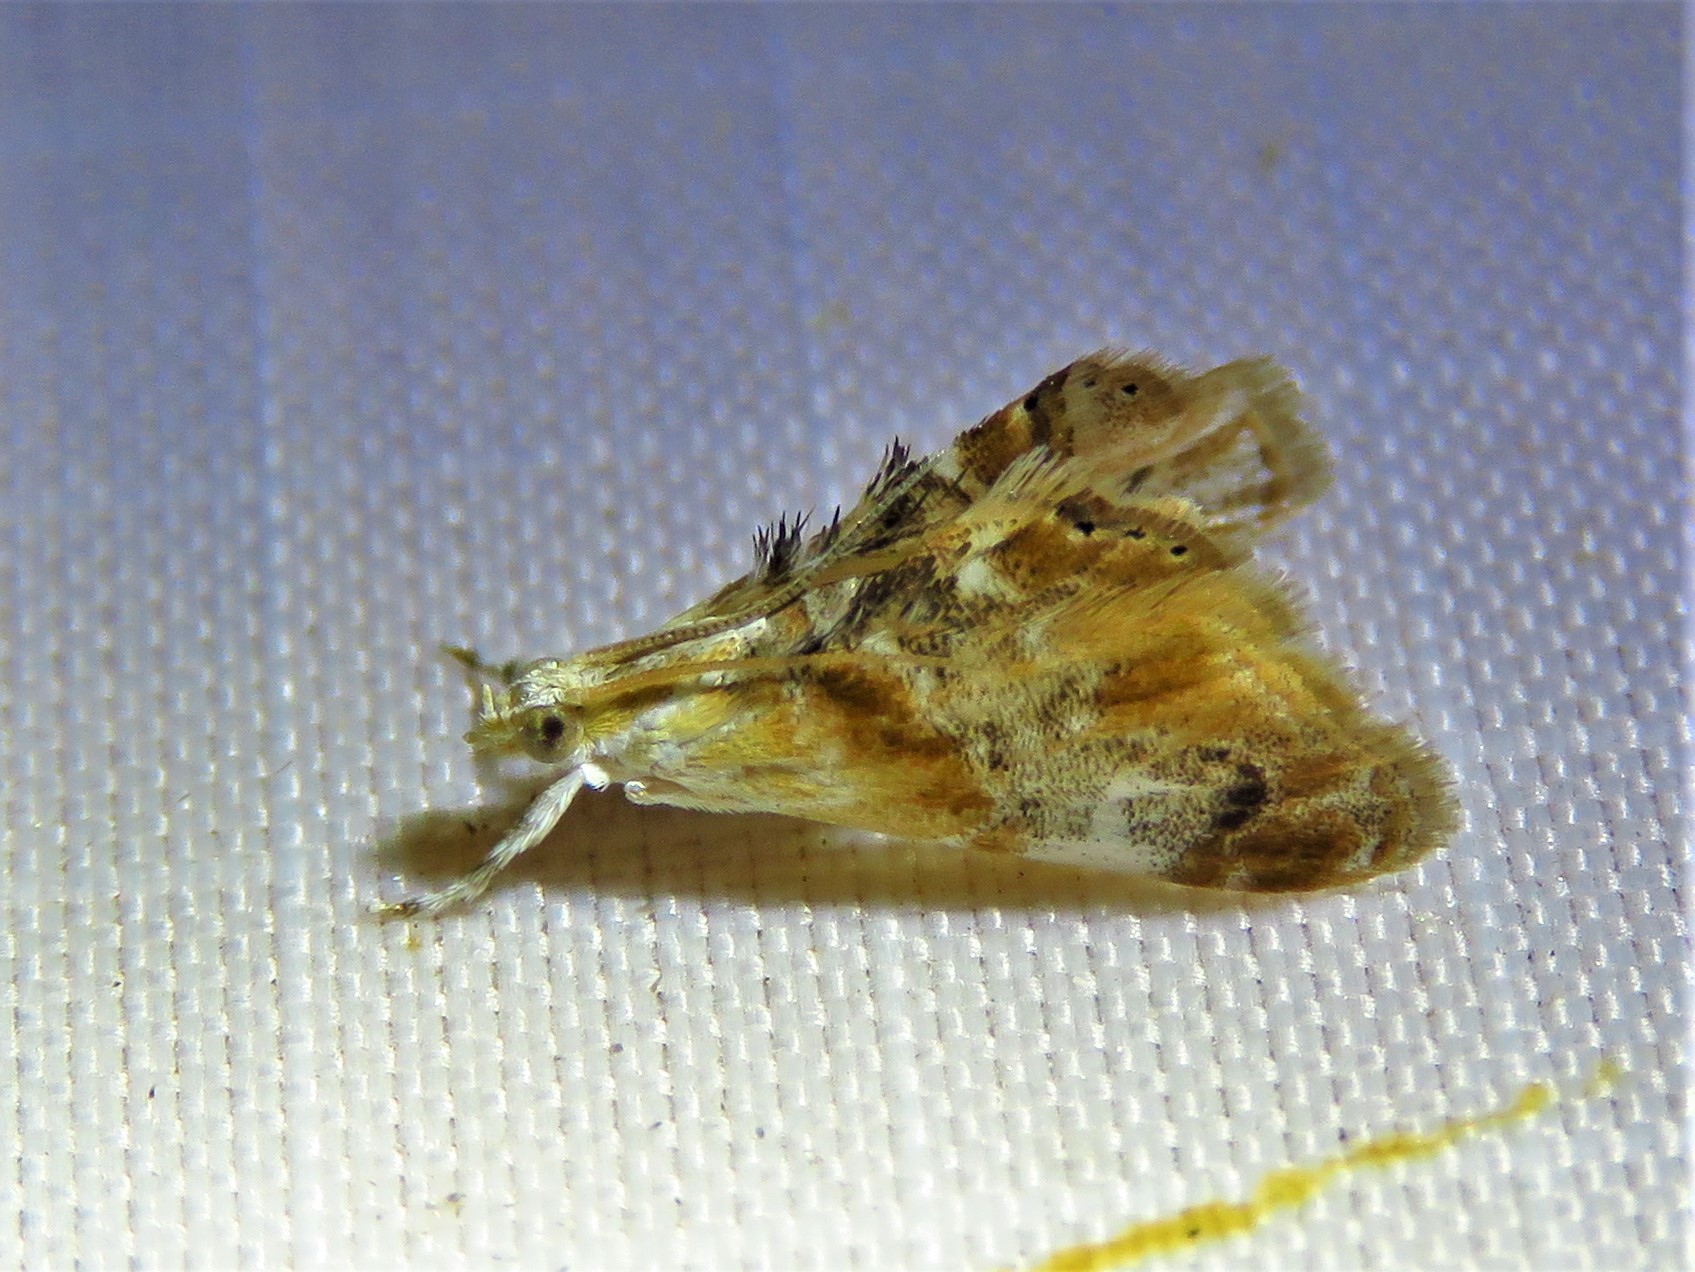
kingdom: Animalia
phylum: Arthropoda
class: Insecta
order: Lepidoptera
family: Crambidae
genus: Dicymolomia
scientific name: Dicymolomia julianalis
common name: Julia's dicymolomia moth
